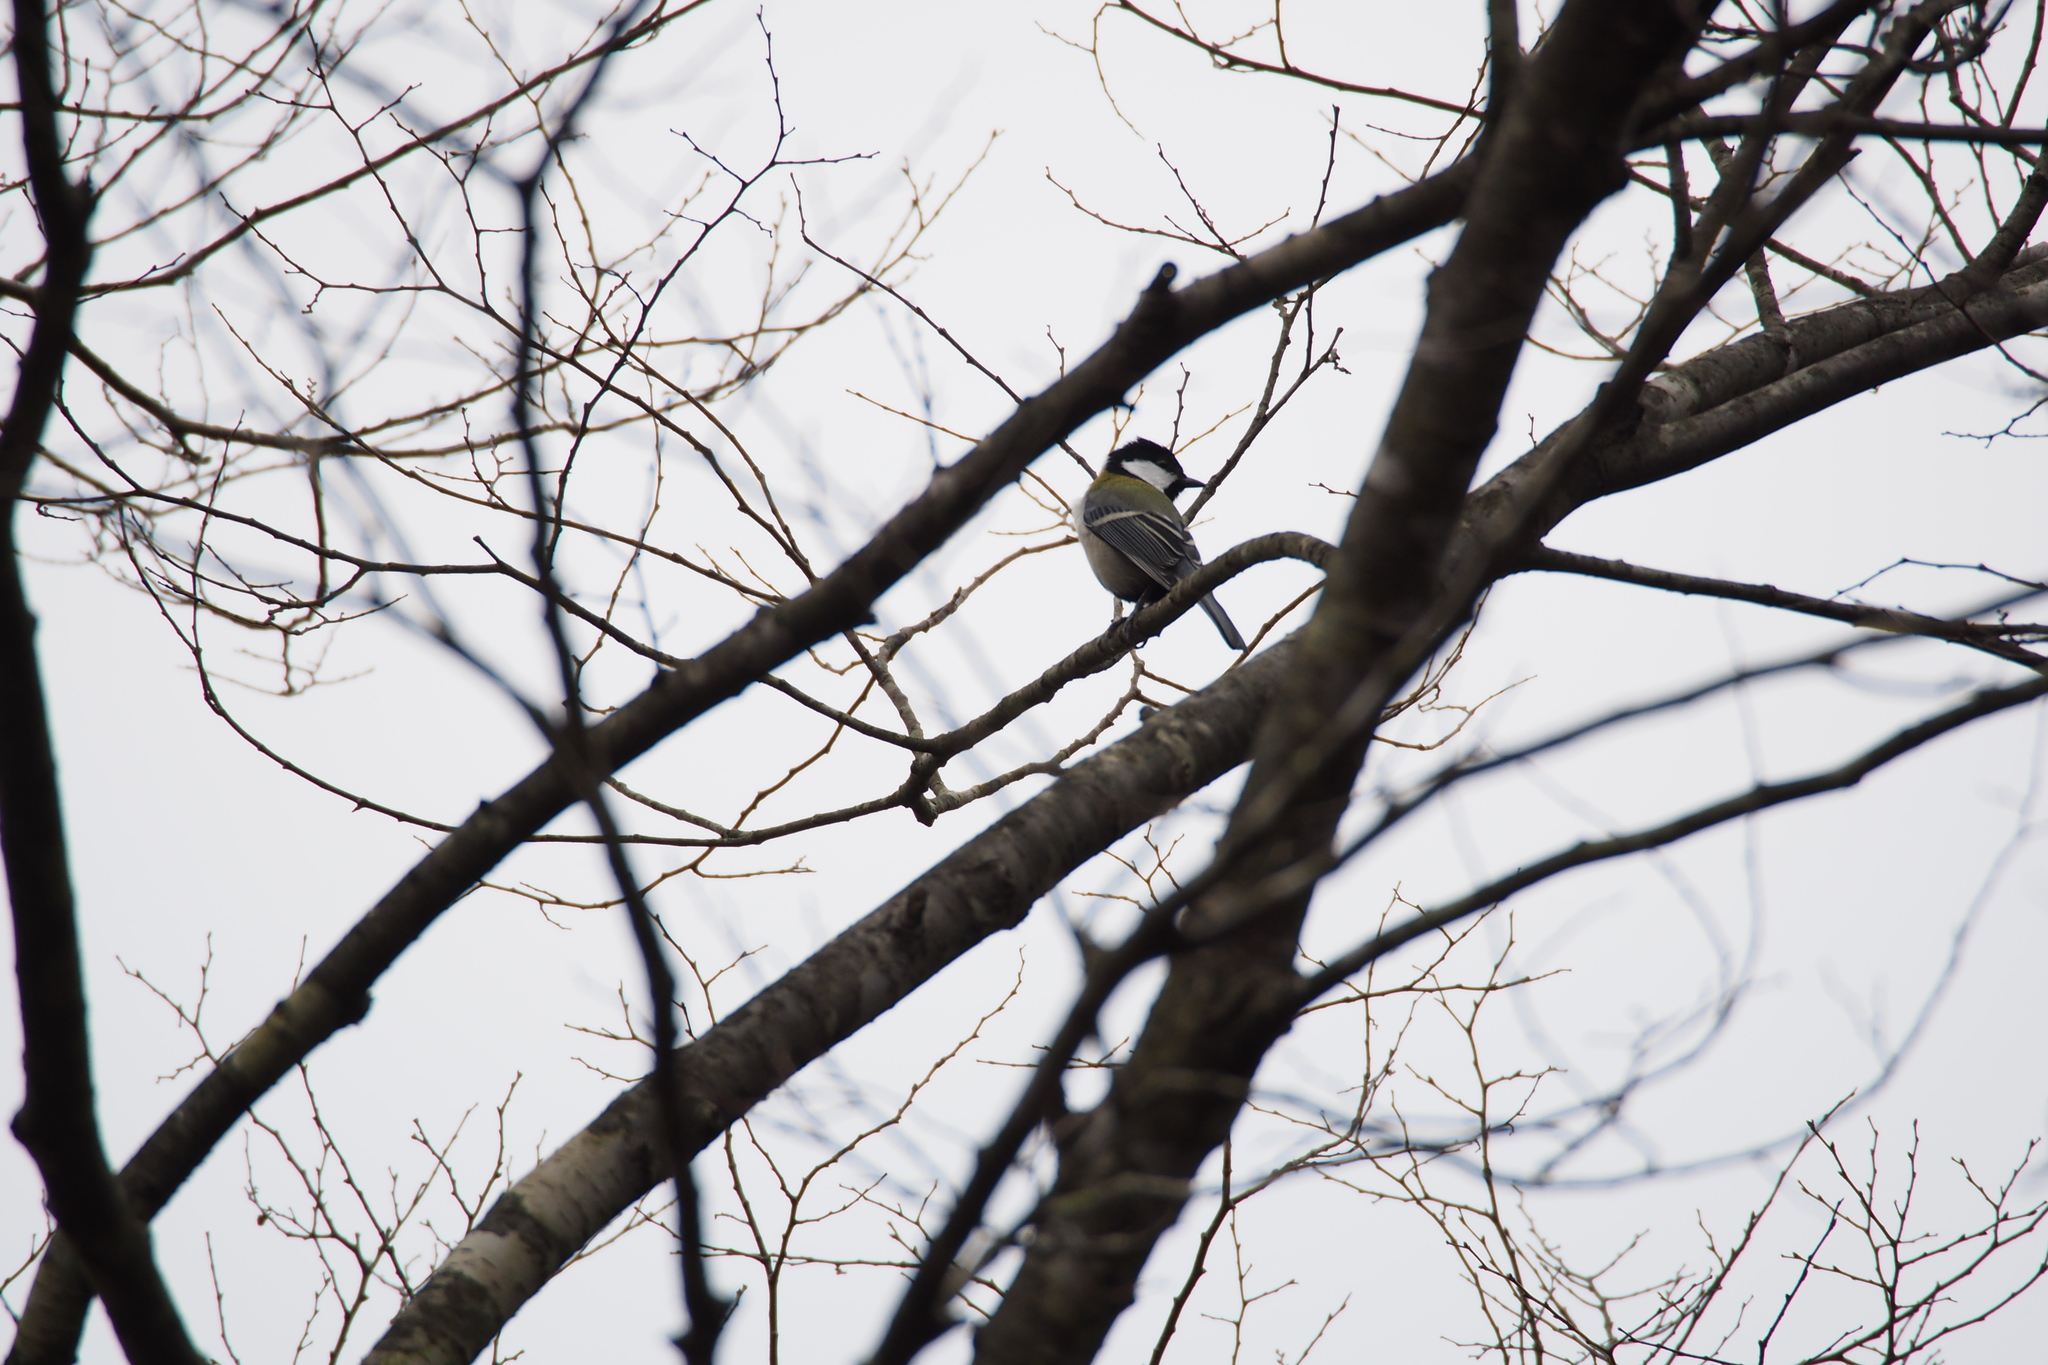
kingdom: Animalia
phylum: Chordata
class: Aves
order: Passeriformes
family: Paridae
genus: Parus
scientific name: Parus minor
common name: Japanese tit
